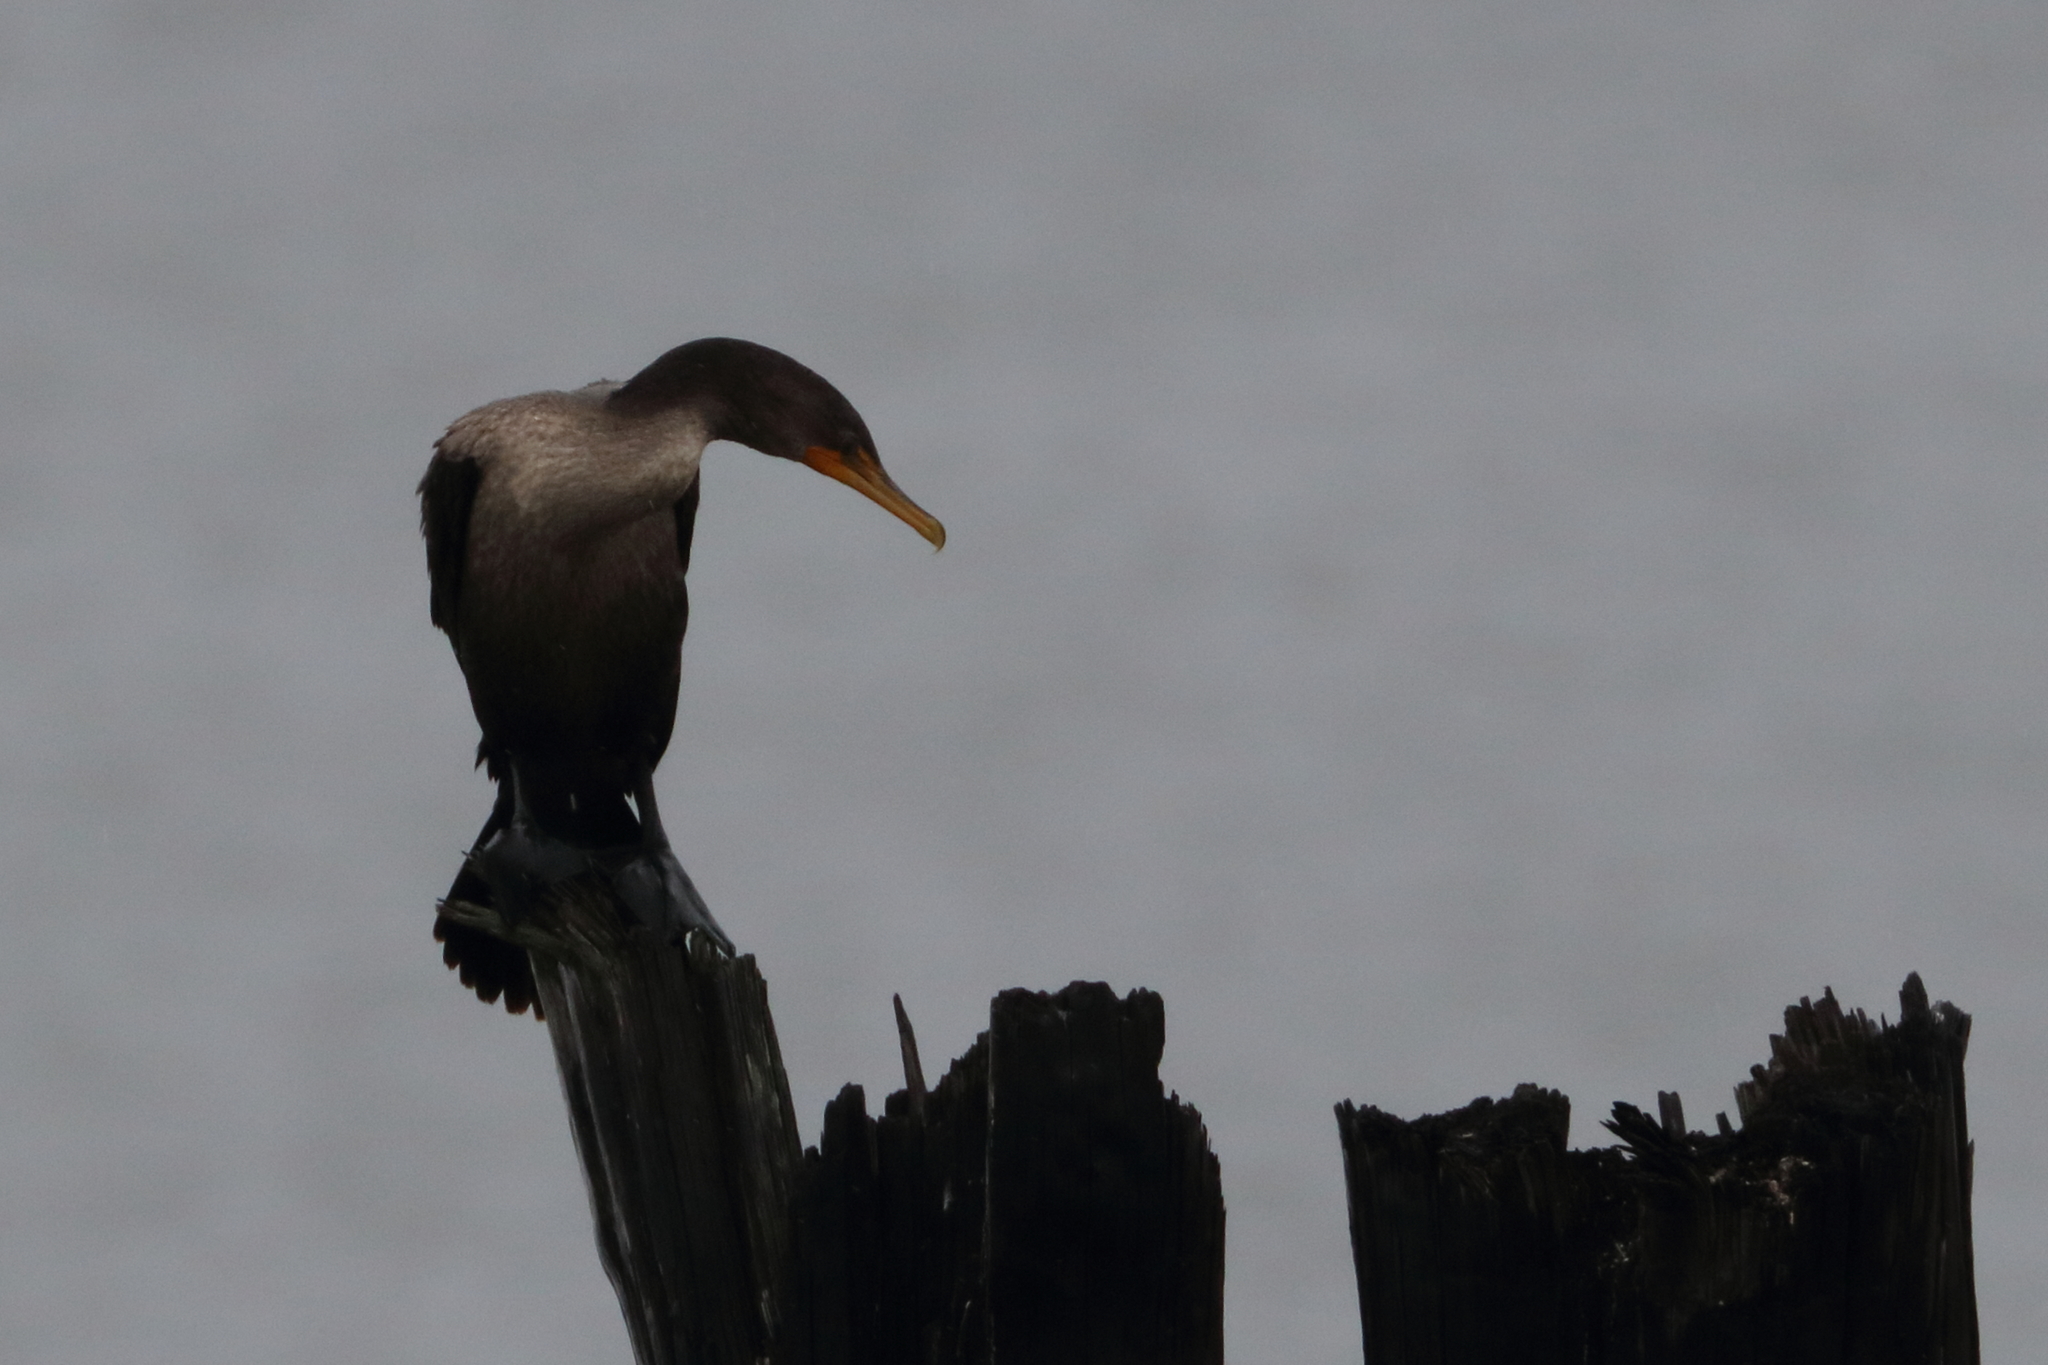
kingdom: Animalia
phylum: Chordata
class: Aves
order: Suliformes
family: Phalacrocoracidae
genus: Phalacrocorax
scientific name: Phalacrocorax auritus
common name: Double-crested cormorant
